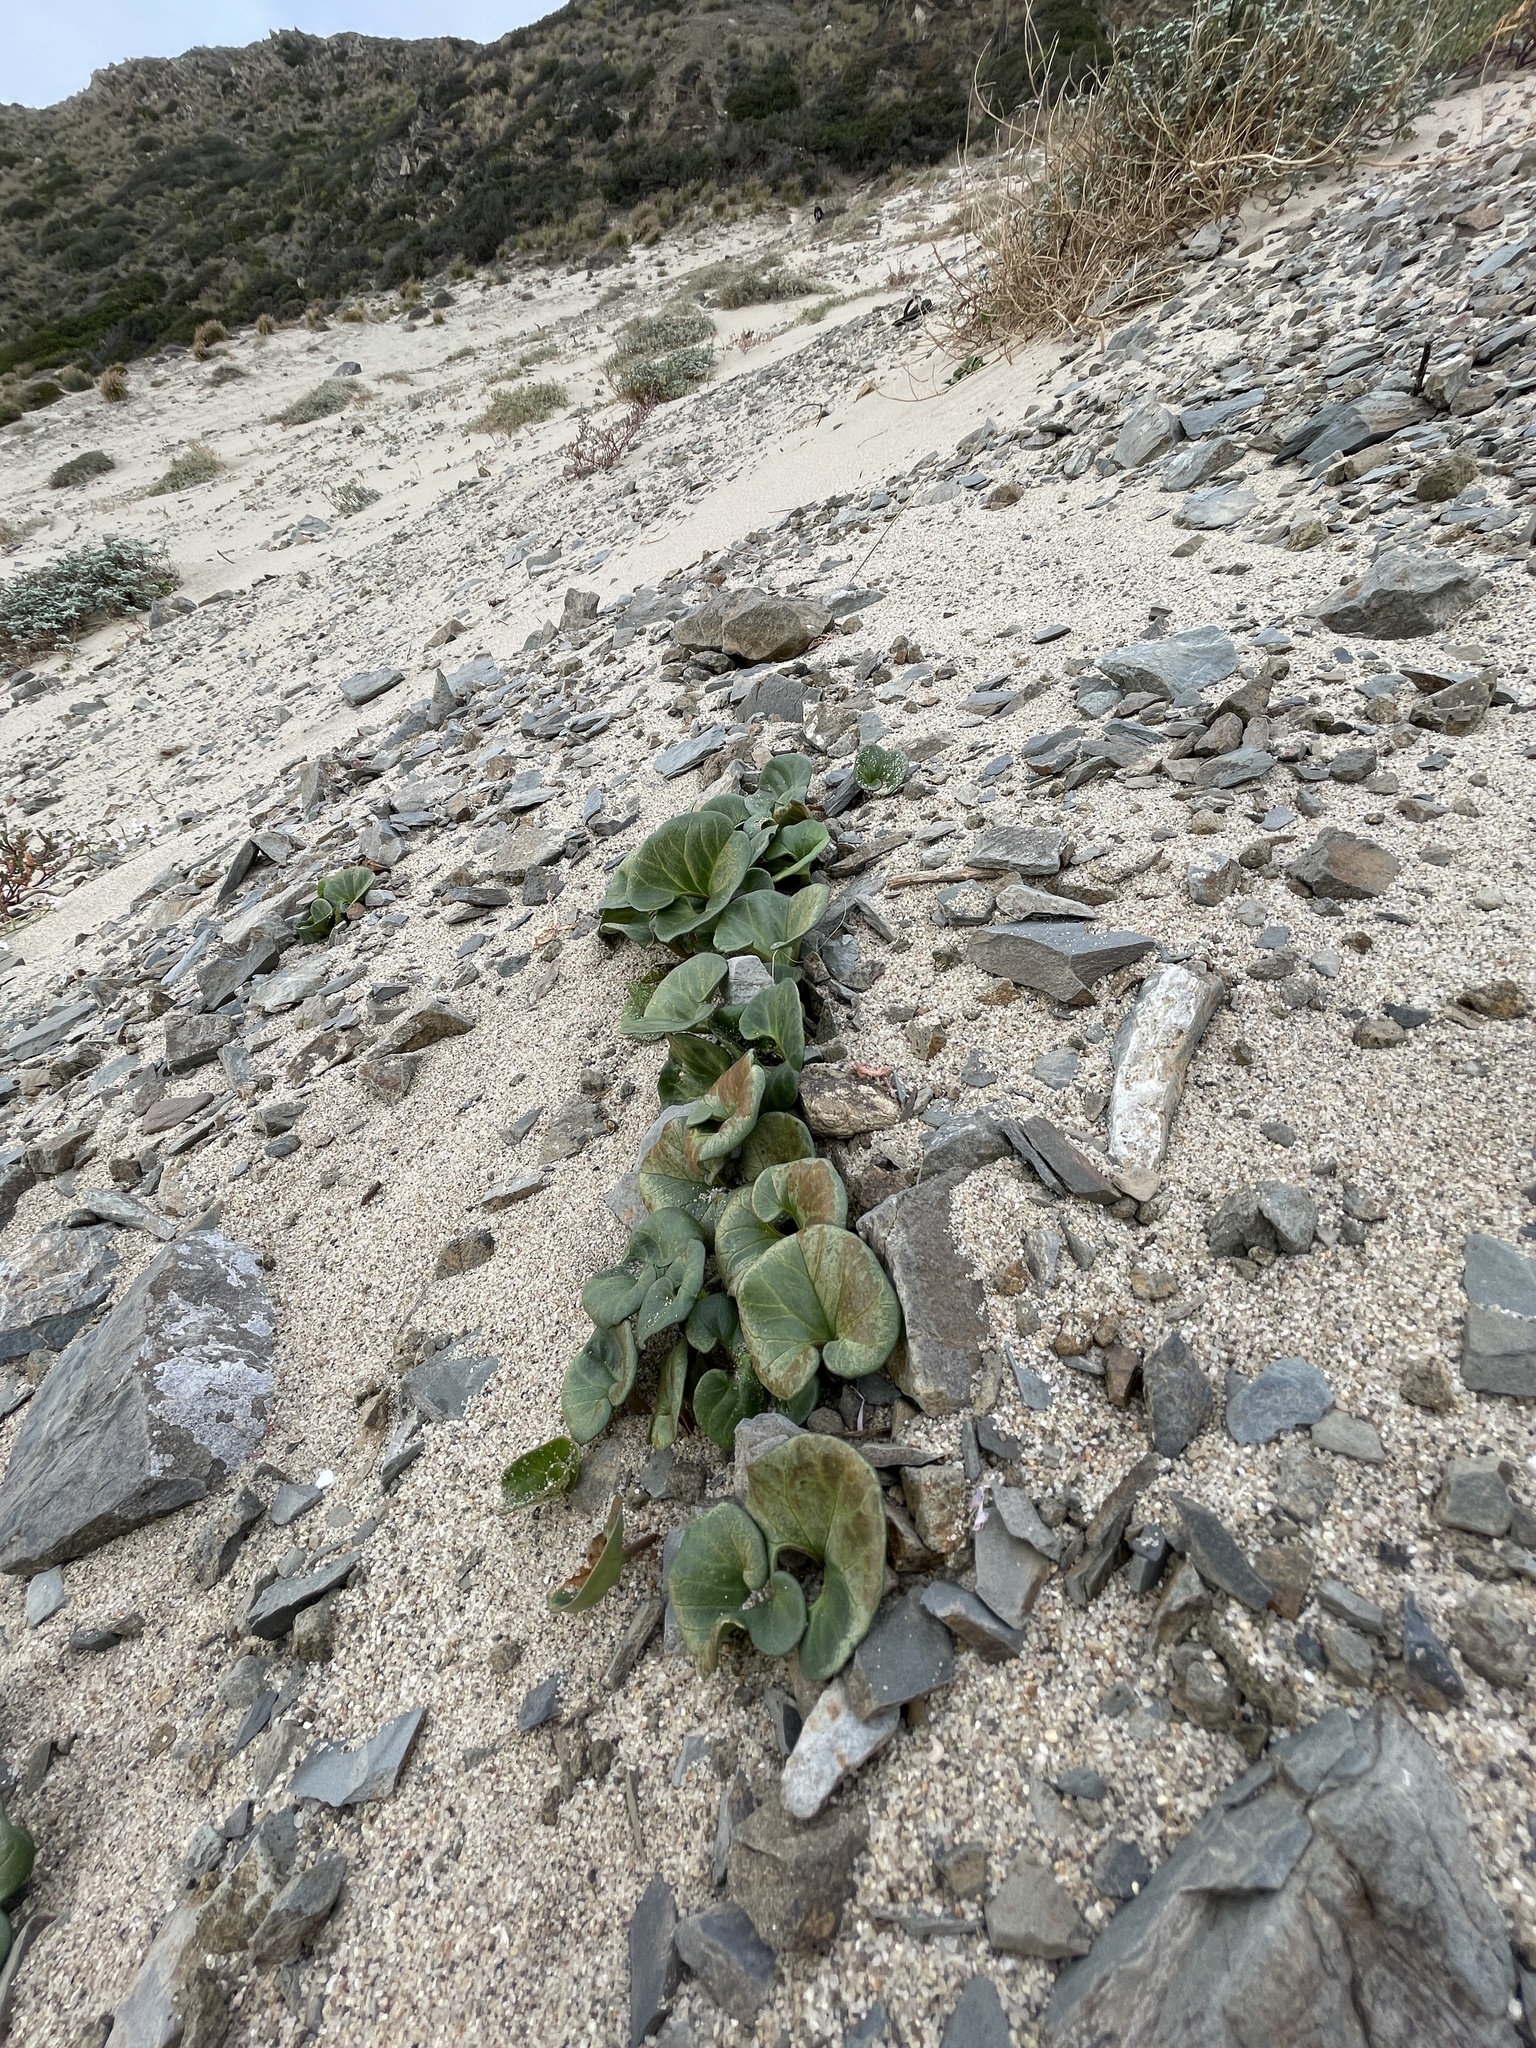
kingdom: Plantae
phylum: Tracheophyta
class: Magnoliopsida
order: Solanales
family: Convolvulaceae
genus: Calystegia
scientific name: Calystegia soldanella
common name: Sea bindweed
